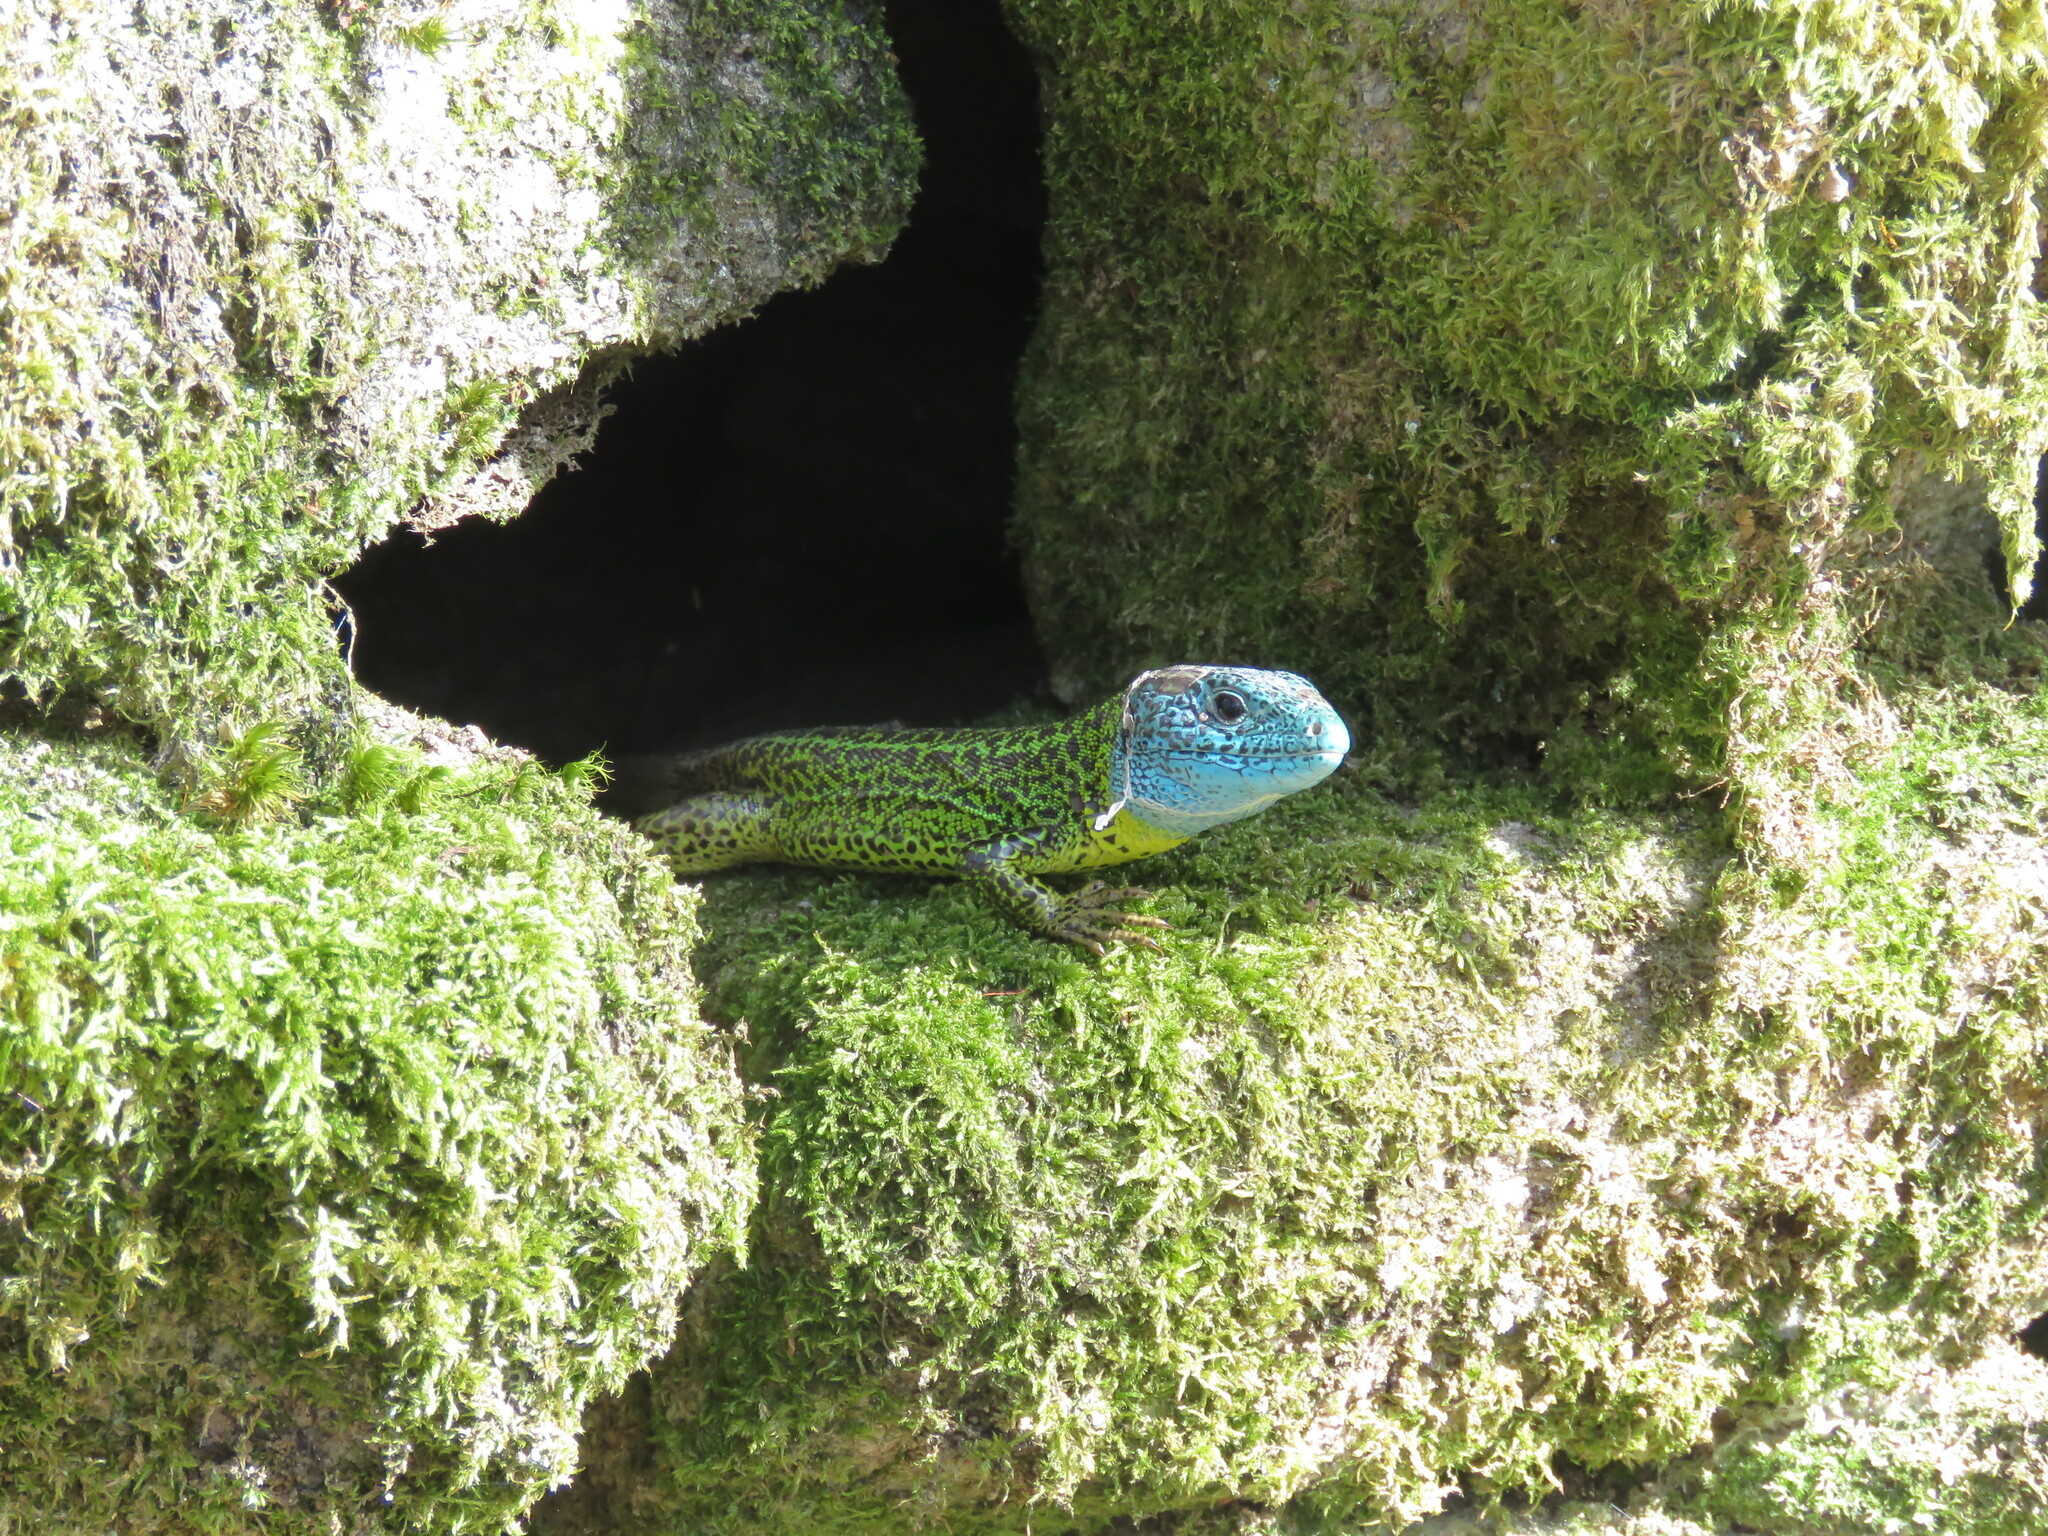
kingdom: Animalia
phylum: Chordata
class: Squamata
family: Lacertidae
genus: Lacerta
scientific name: Lacerta schreiberi
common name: Iberian emerald lizard
